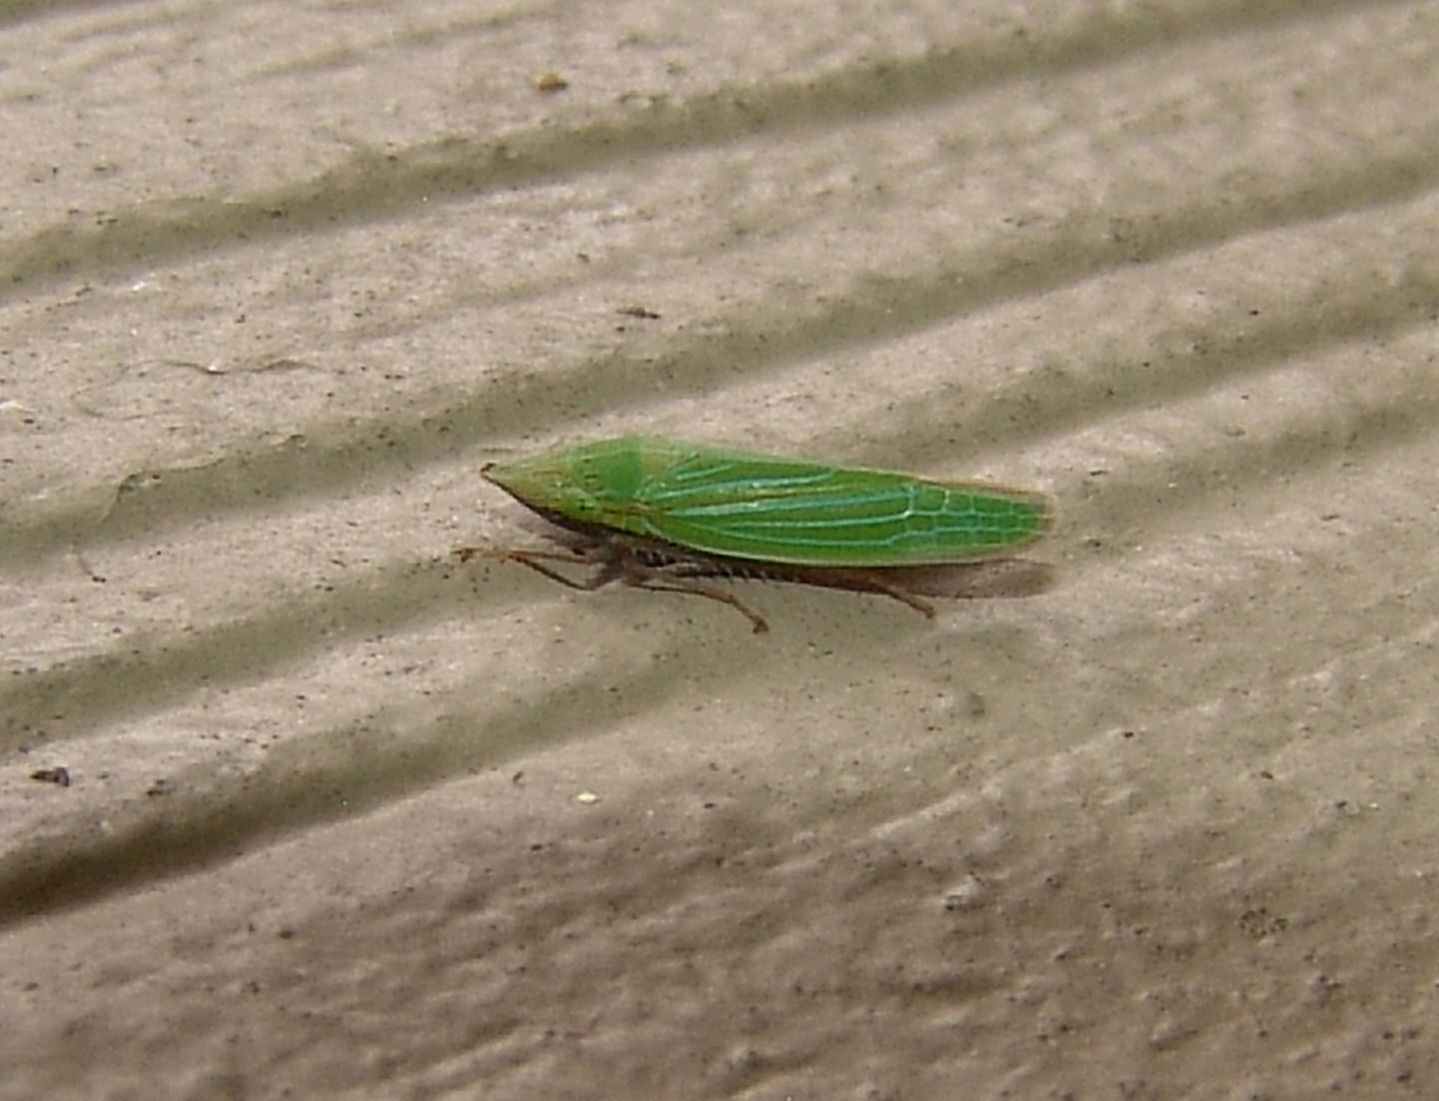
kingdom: Animalia
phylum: Arthropoda
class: Insecta
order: Hemiptera
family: Cicadellidae
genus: Draeculacephala
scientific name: Draeculacephala
